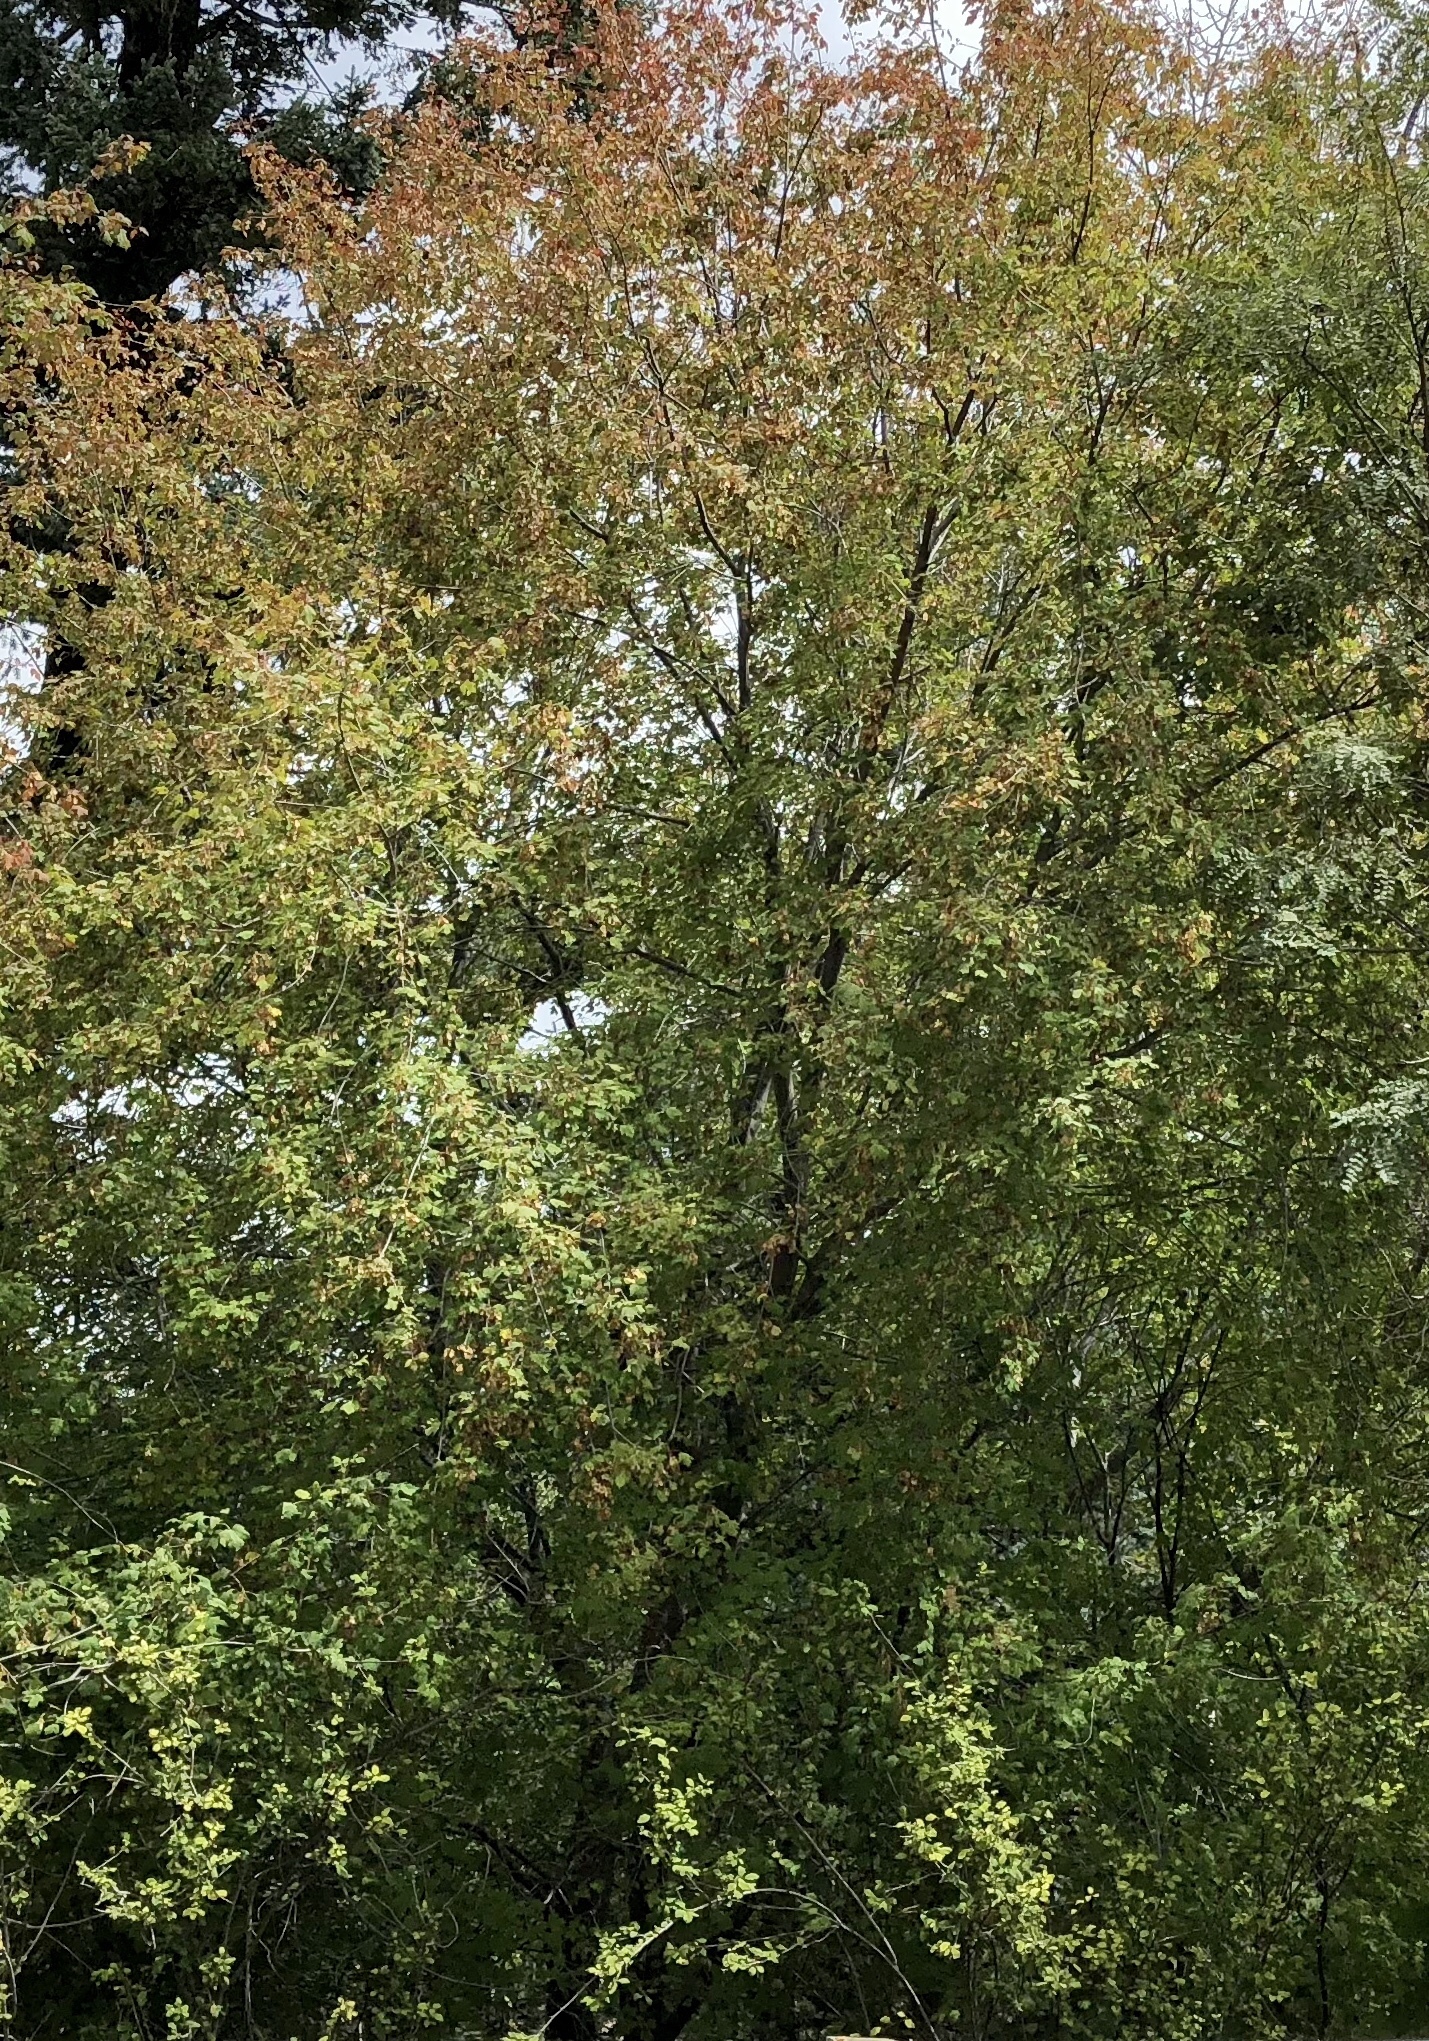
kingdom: Plantae
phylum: Tracheophyta
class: Magnoliopsida
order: Sapindales
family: Sapindaceae
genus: Acer
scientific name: Acer glabrum
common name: Rocky mountain maple
